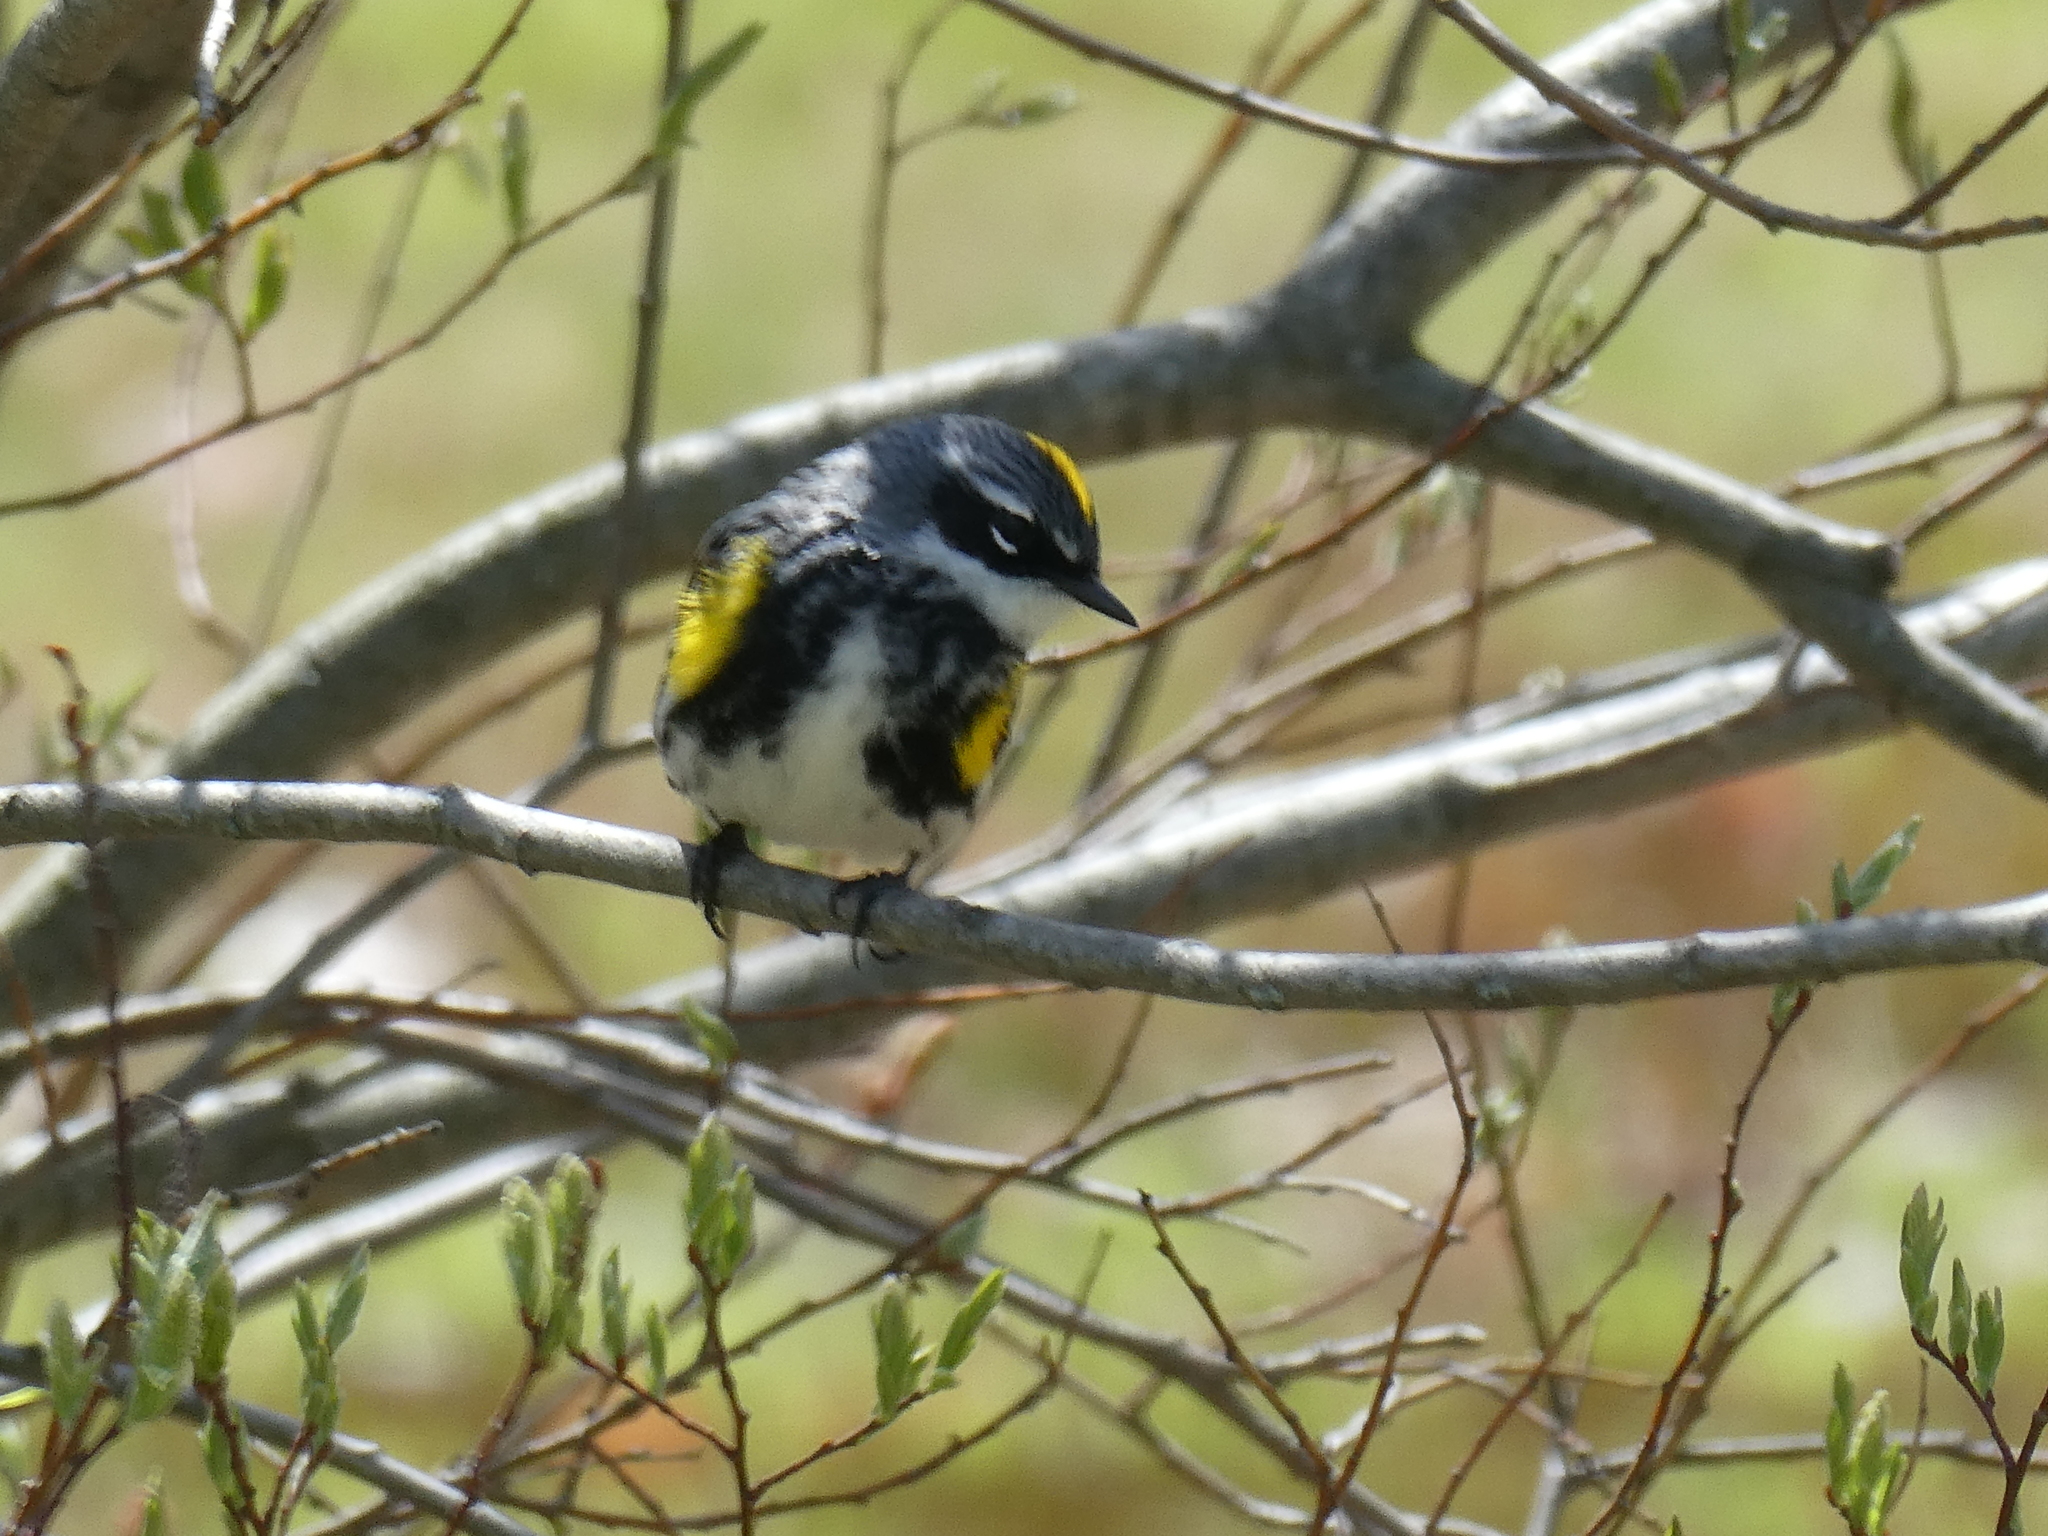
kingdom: Animalia
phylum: Chordata
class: Aves
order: Passeriformes
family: Parulidae
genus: Setophaga
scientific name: Setophaga coronata
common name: Myrtle warbler
